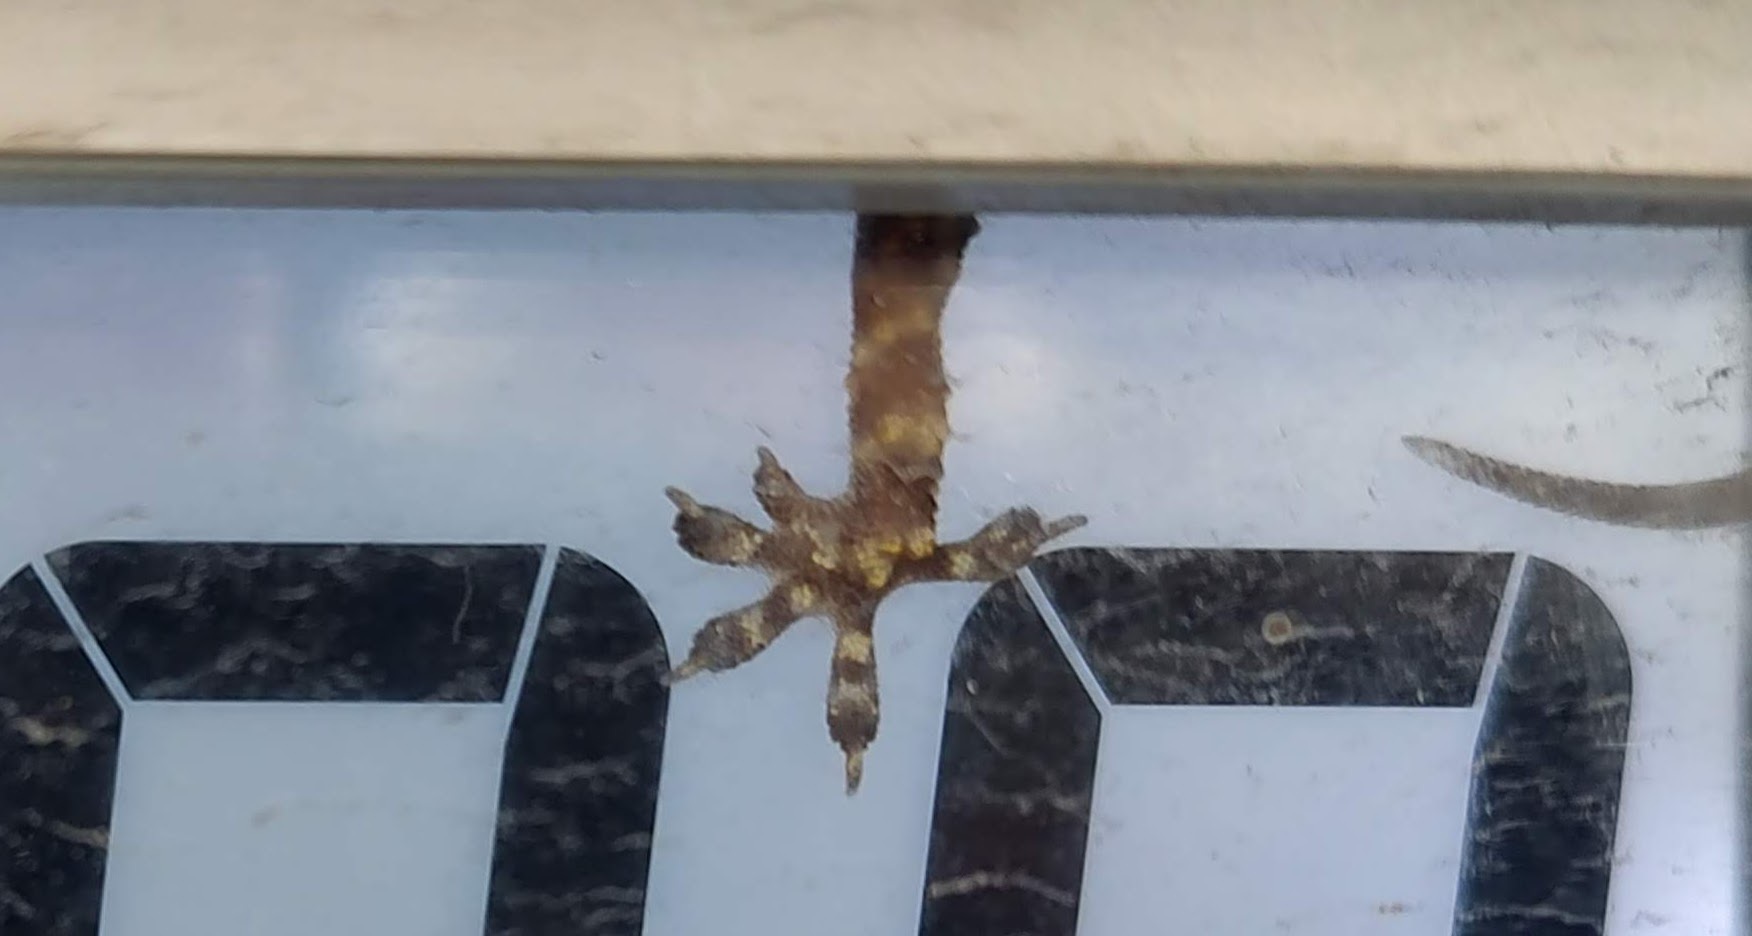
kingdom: Animalia
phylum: Chordata
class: Squamata
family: Gekkonidae
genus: Hemidactylus
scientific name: Hemidactylus turcicus
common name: Turkish gecko
